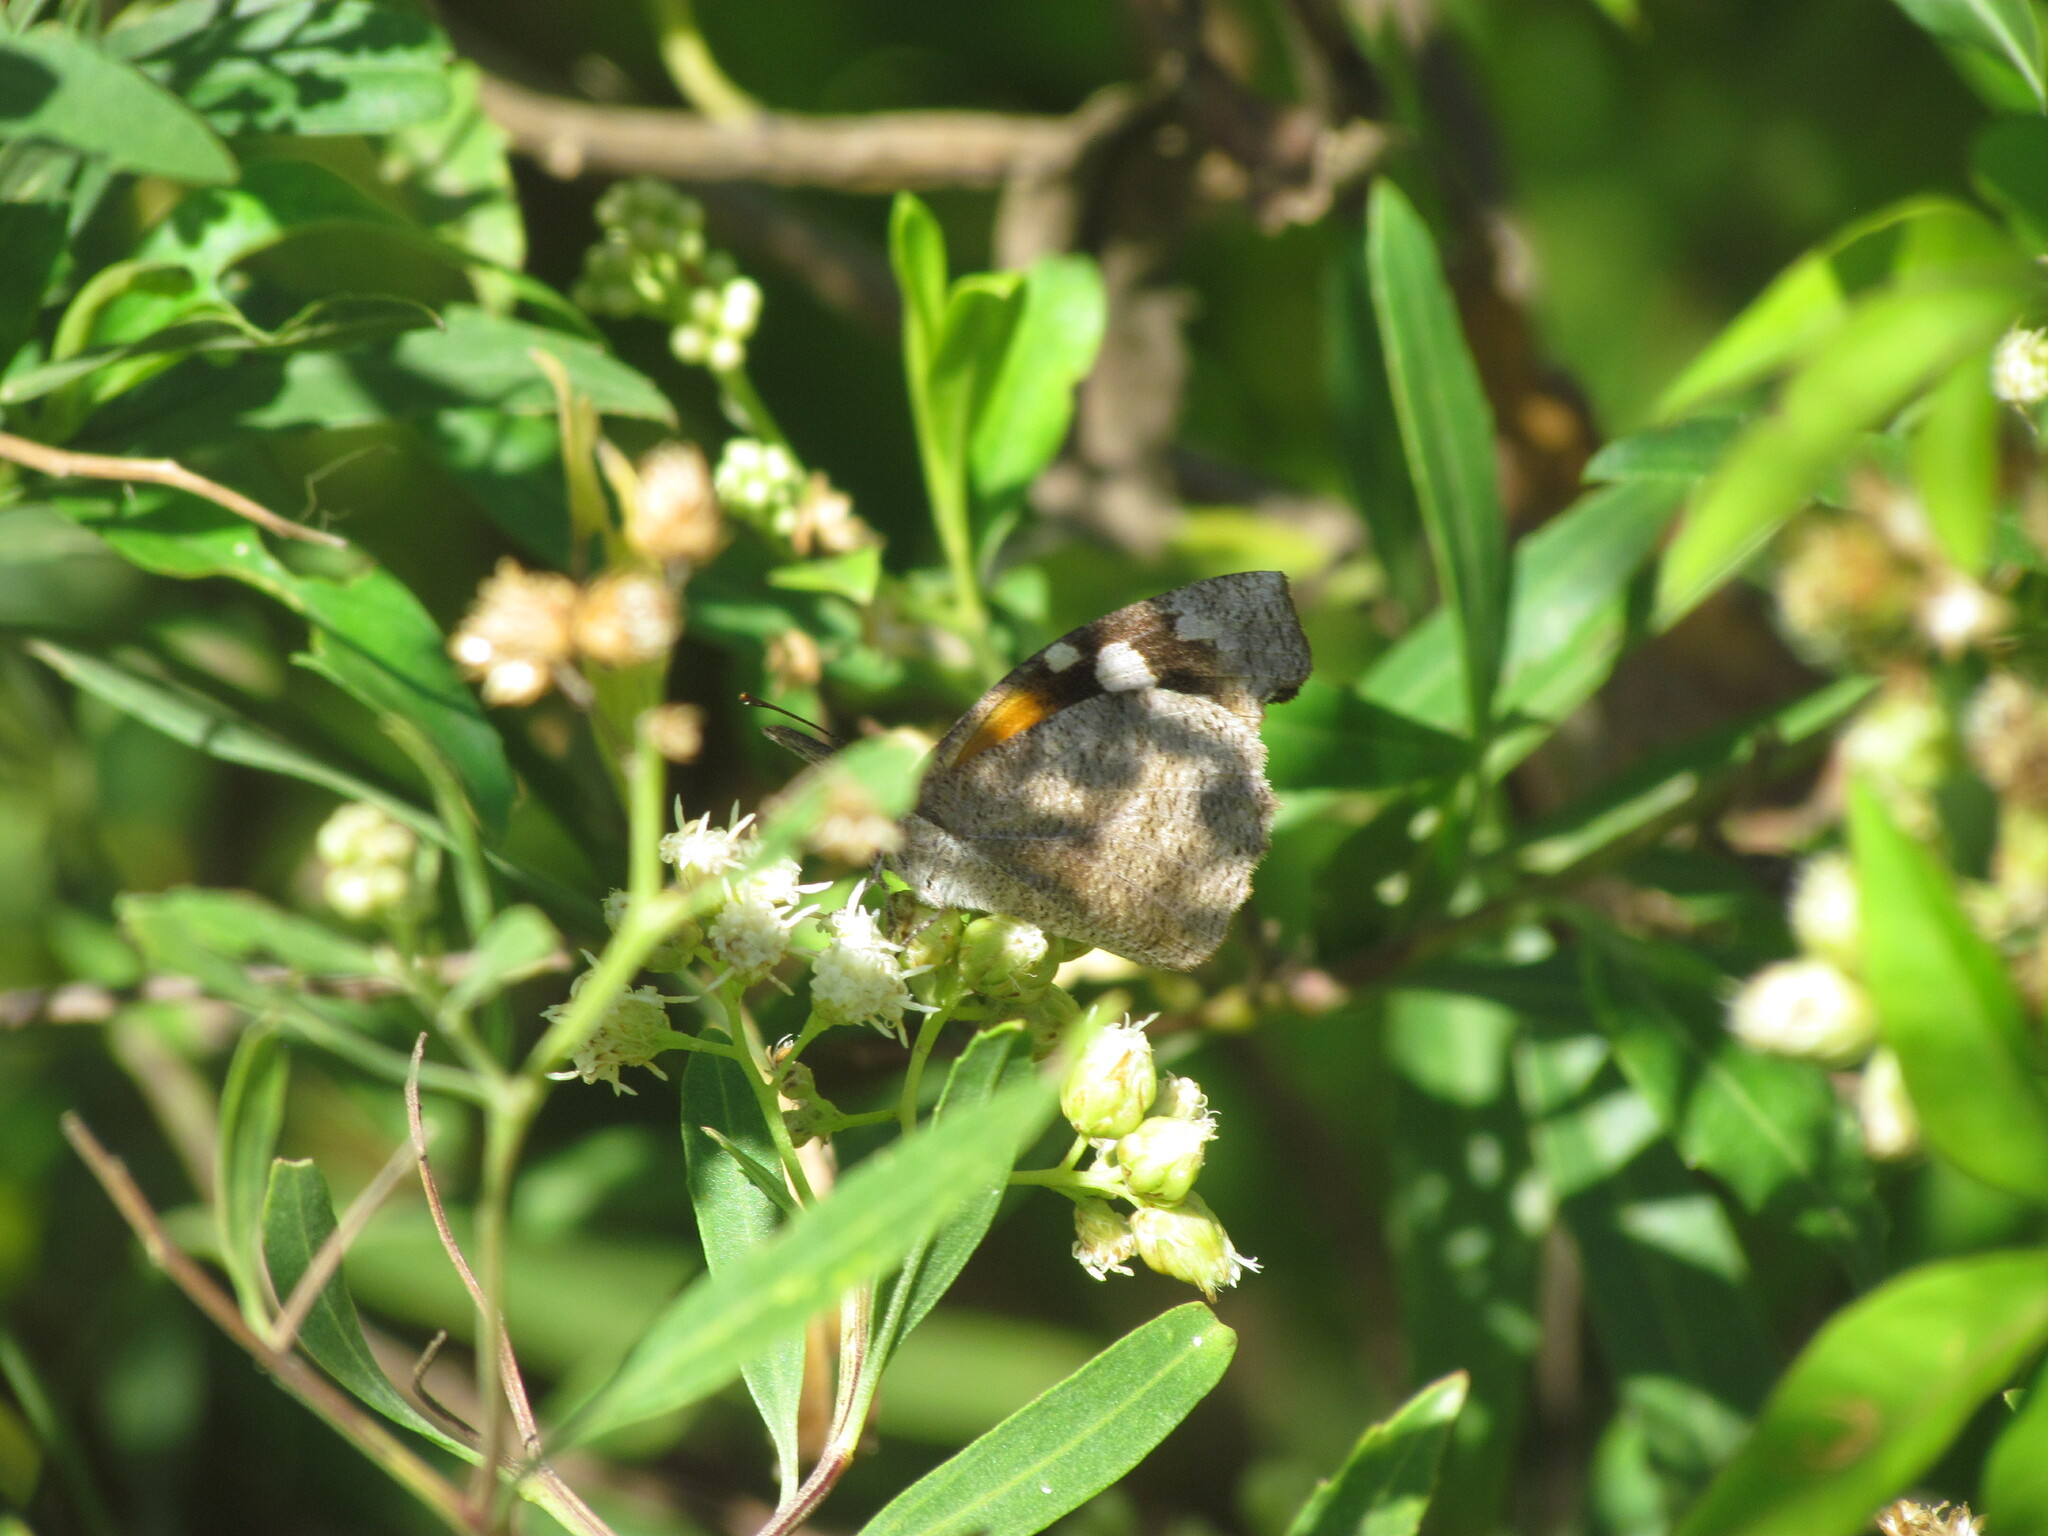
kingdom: Animalia
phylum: Arthropoda
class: Insecta
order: Lepidoptera
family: Nymphalidae
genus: Libytheana
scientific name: Libytheana carinenta
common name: American snout
